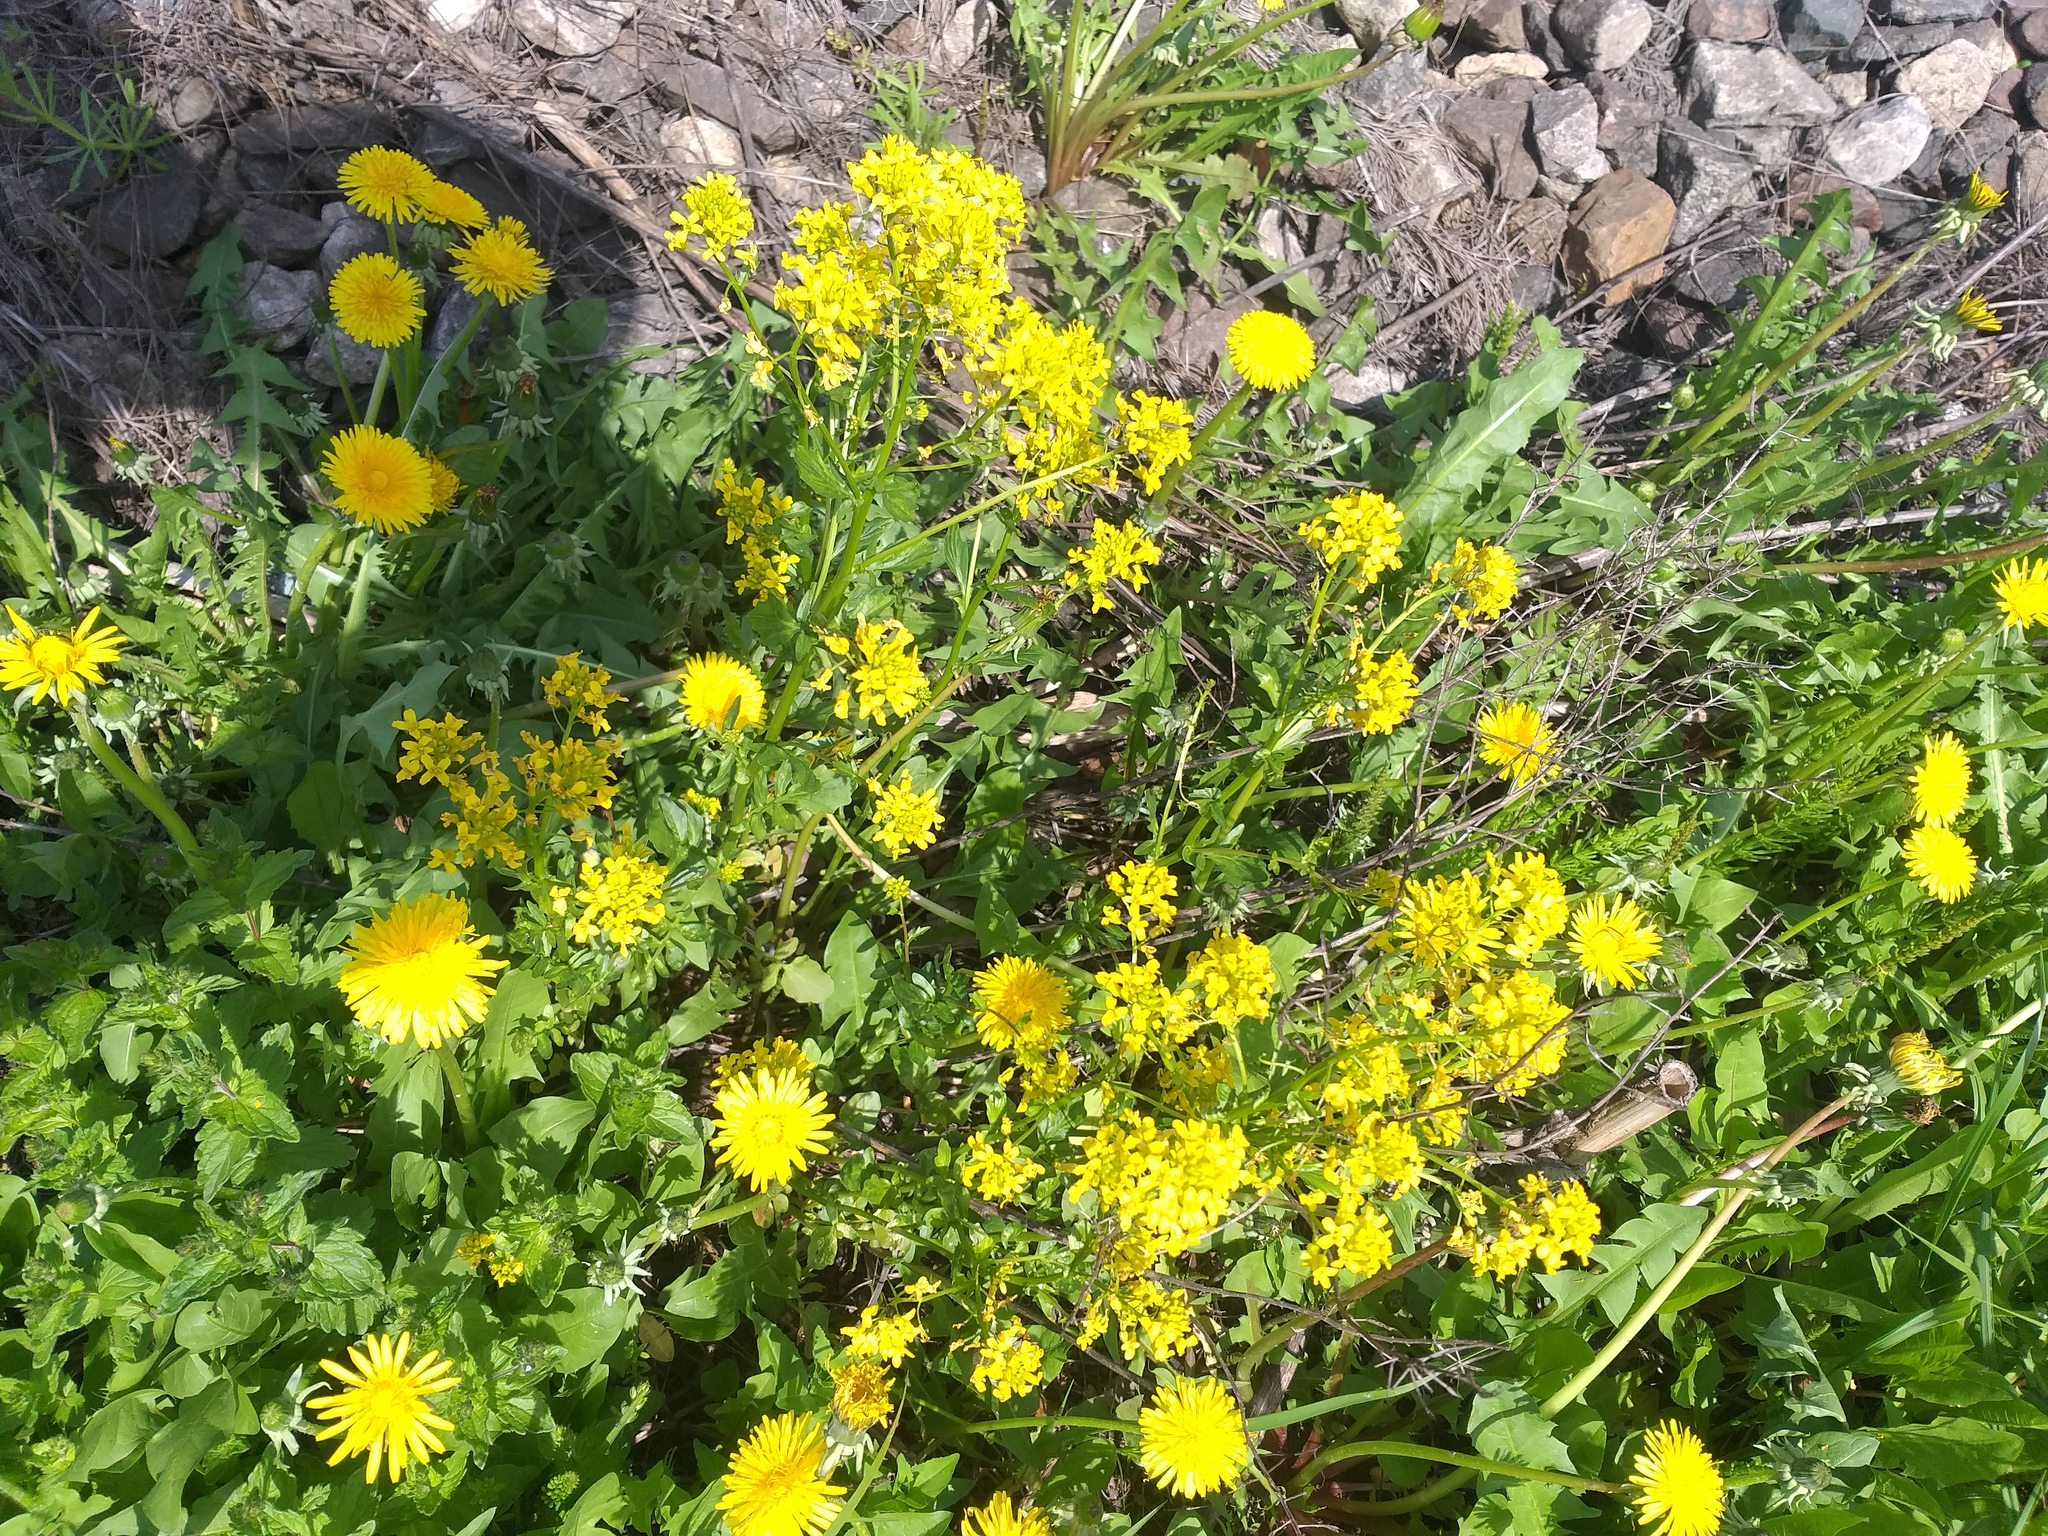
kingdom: Plantae
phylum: Tracheophyta
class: Magnoliopsida
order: Brassicales
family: Brassicaceae
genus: Barbarea
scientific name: Barbarea vulgaris
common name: Cressy-greens
